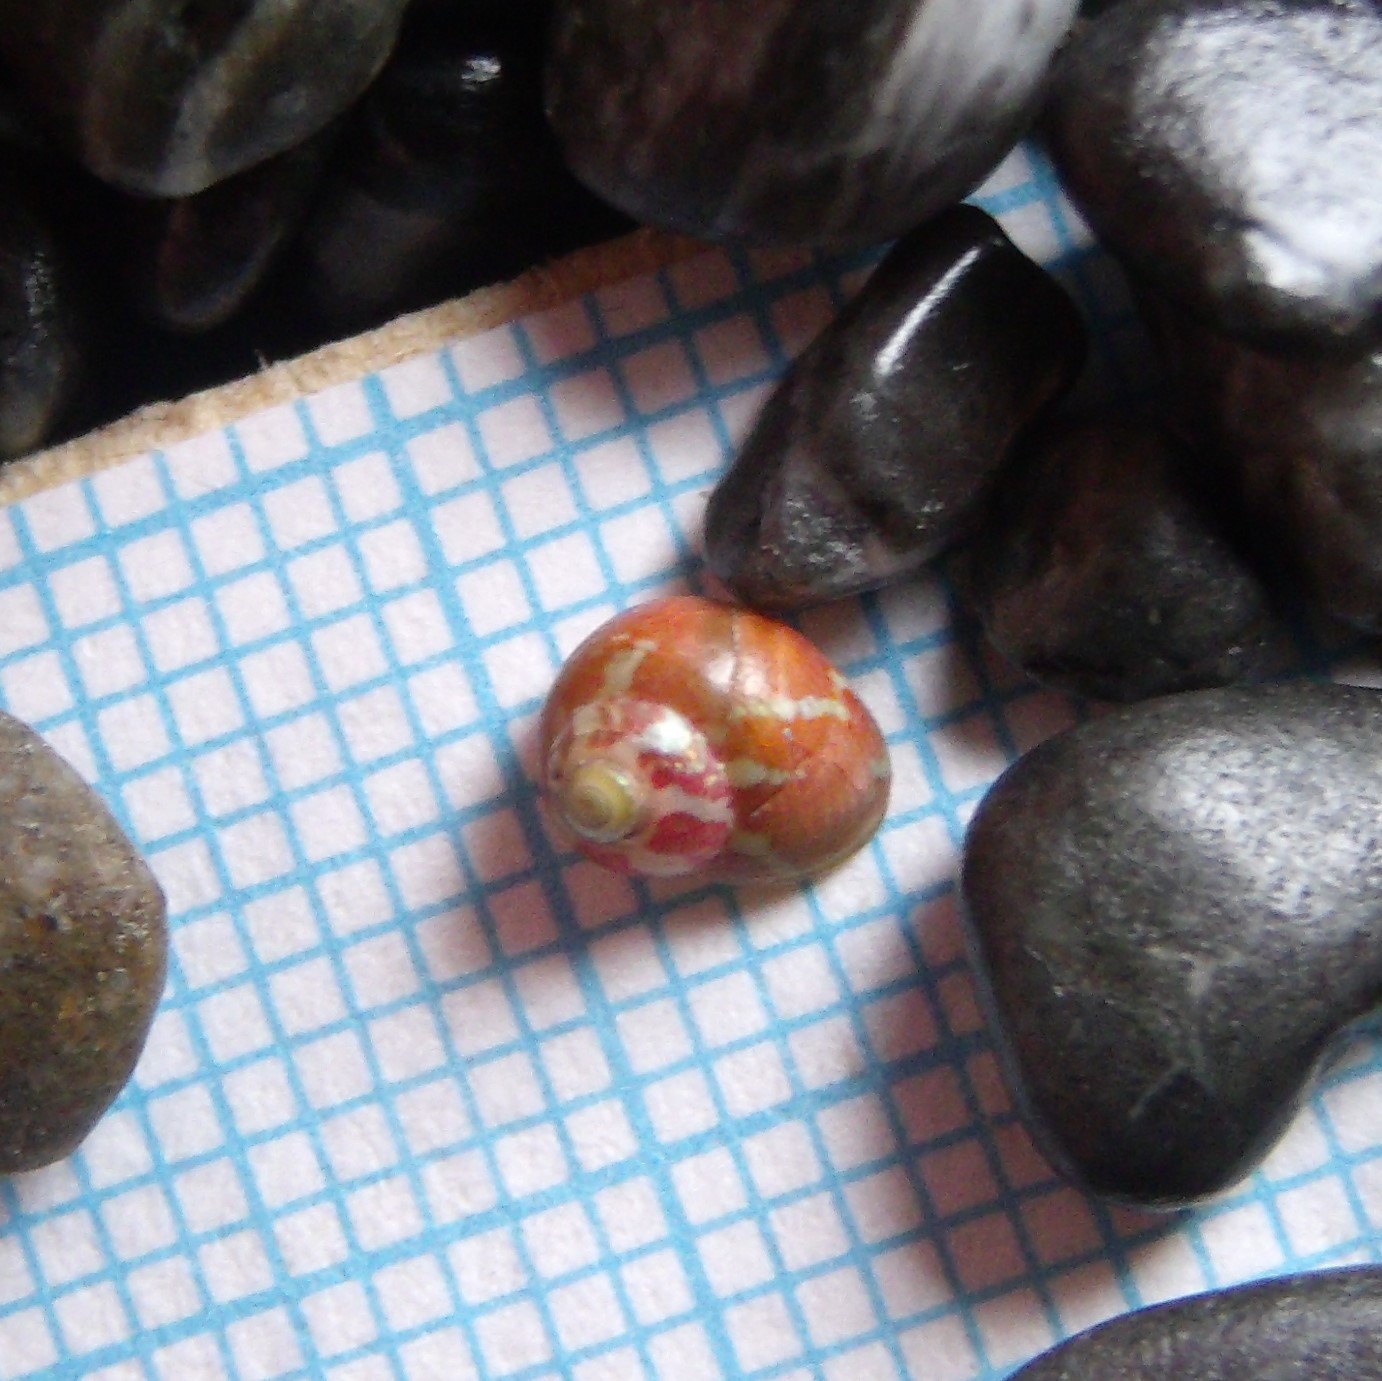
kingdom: Animalia
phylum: Mollusca
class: Gastropoda
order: Trochida
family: Trochidae
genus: Micrelenchus
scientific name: Micrelenchus tessellatus
